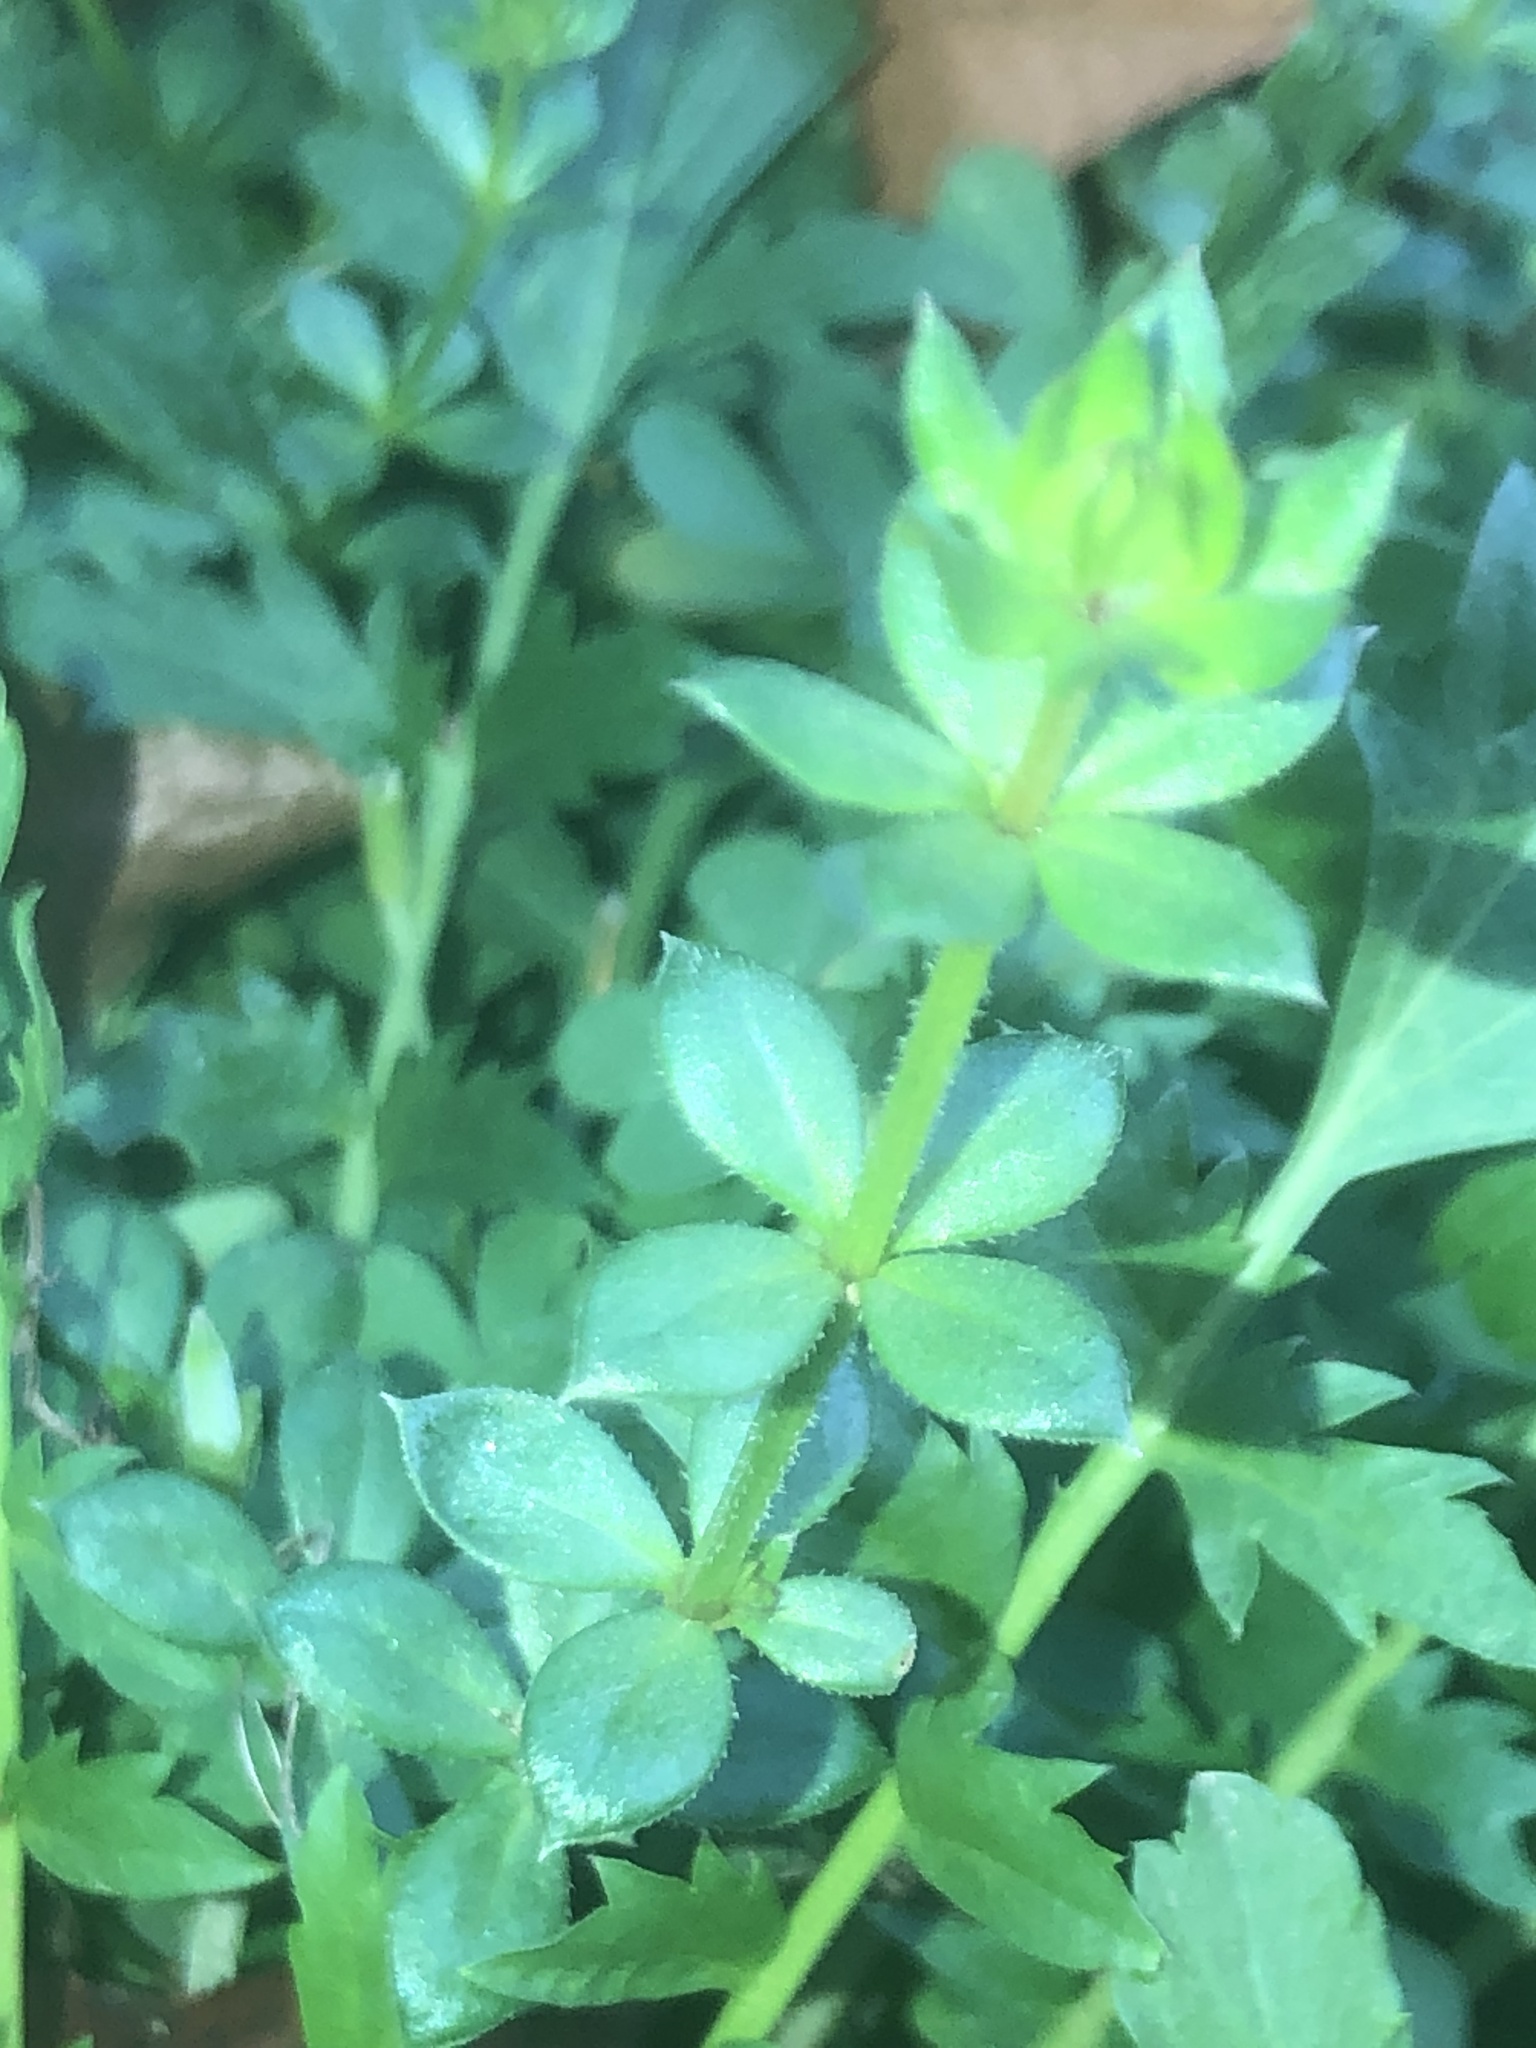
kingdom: Plantae
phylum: Tracheophyta
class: Magnoliopsida
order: Gentianales
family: Rubiaceae
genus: Sherardia
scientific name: Sherardia arvensis
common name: Field madder
